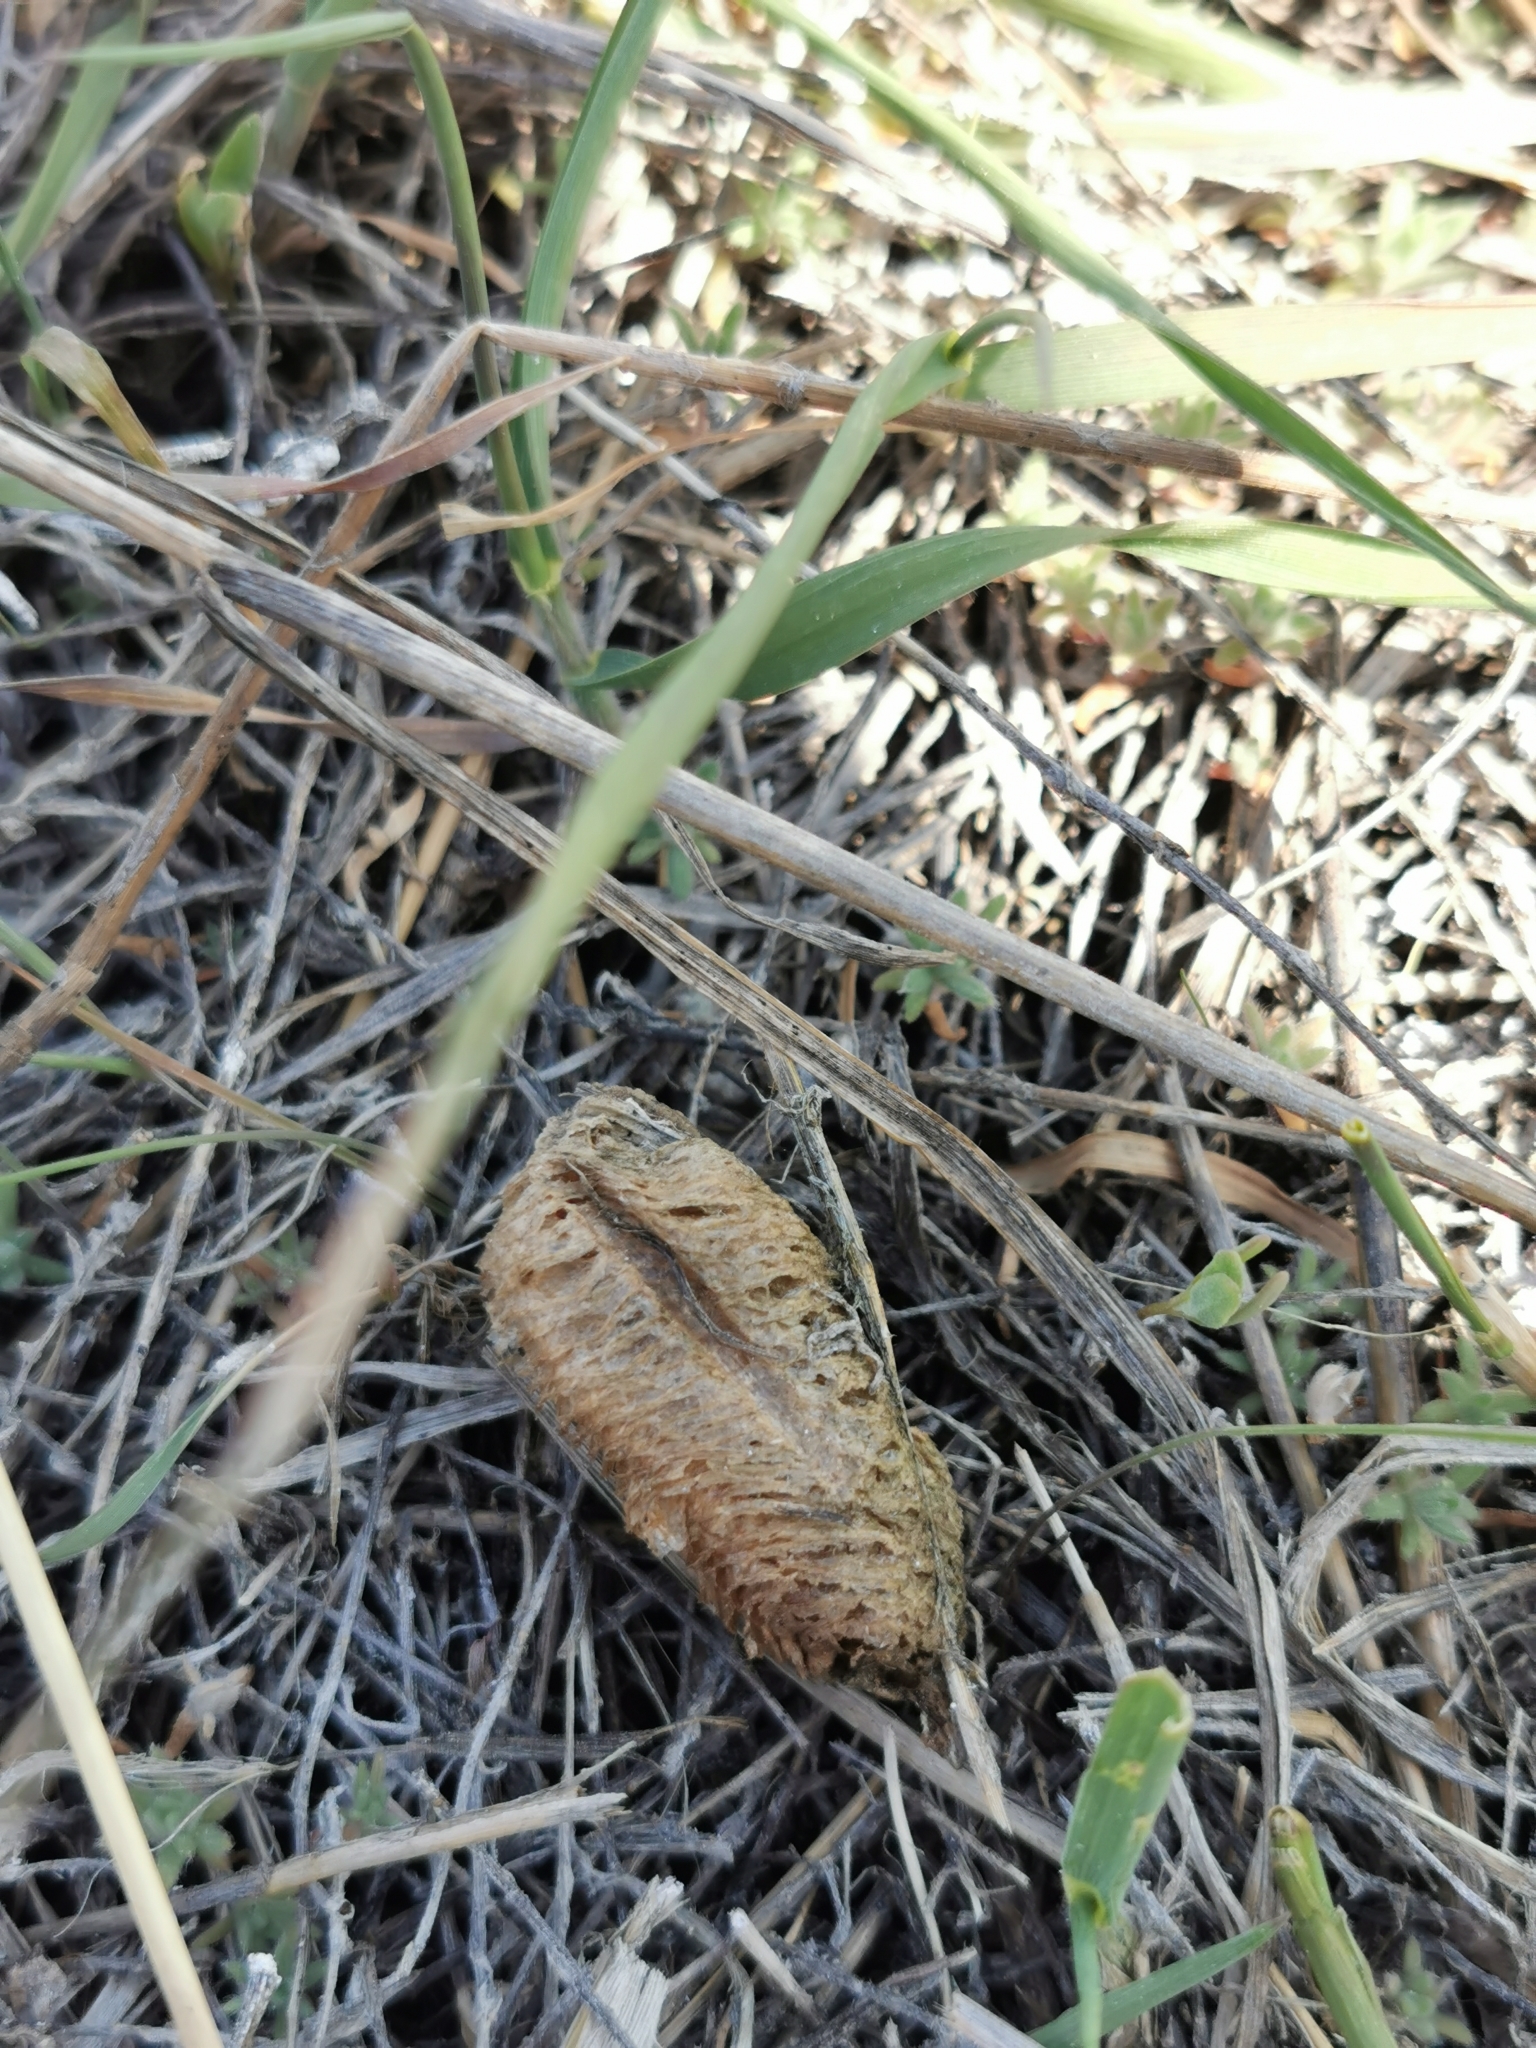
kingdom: Animalia
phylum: Arthropoda
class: Insecta
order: Mantodea
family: Mantidae
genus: Mantis
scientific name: Mantis religiosa
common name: Praying mantis
